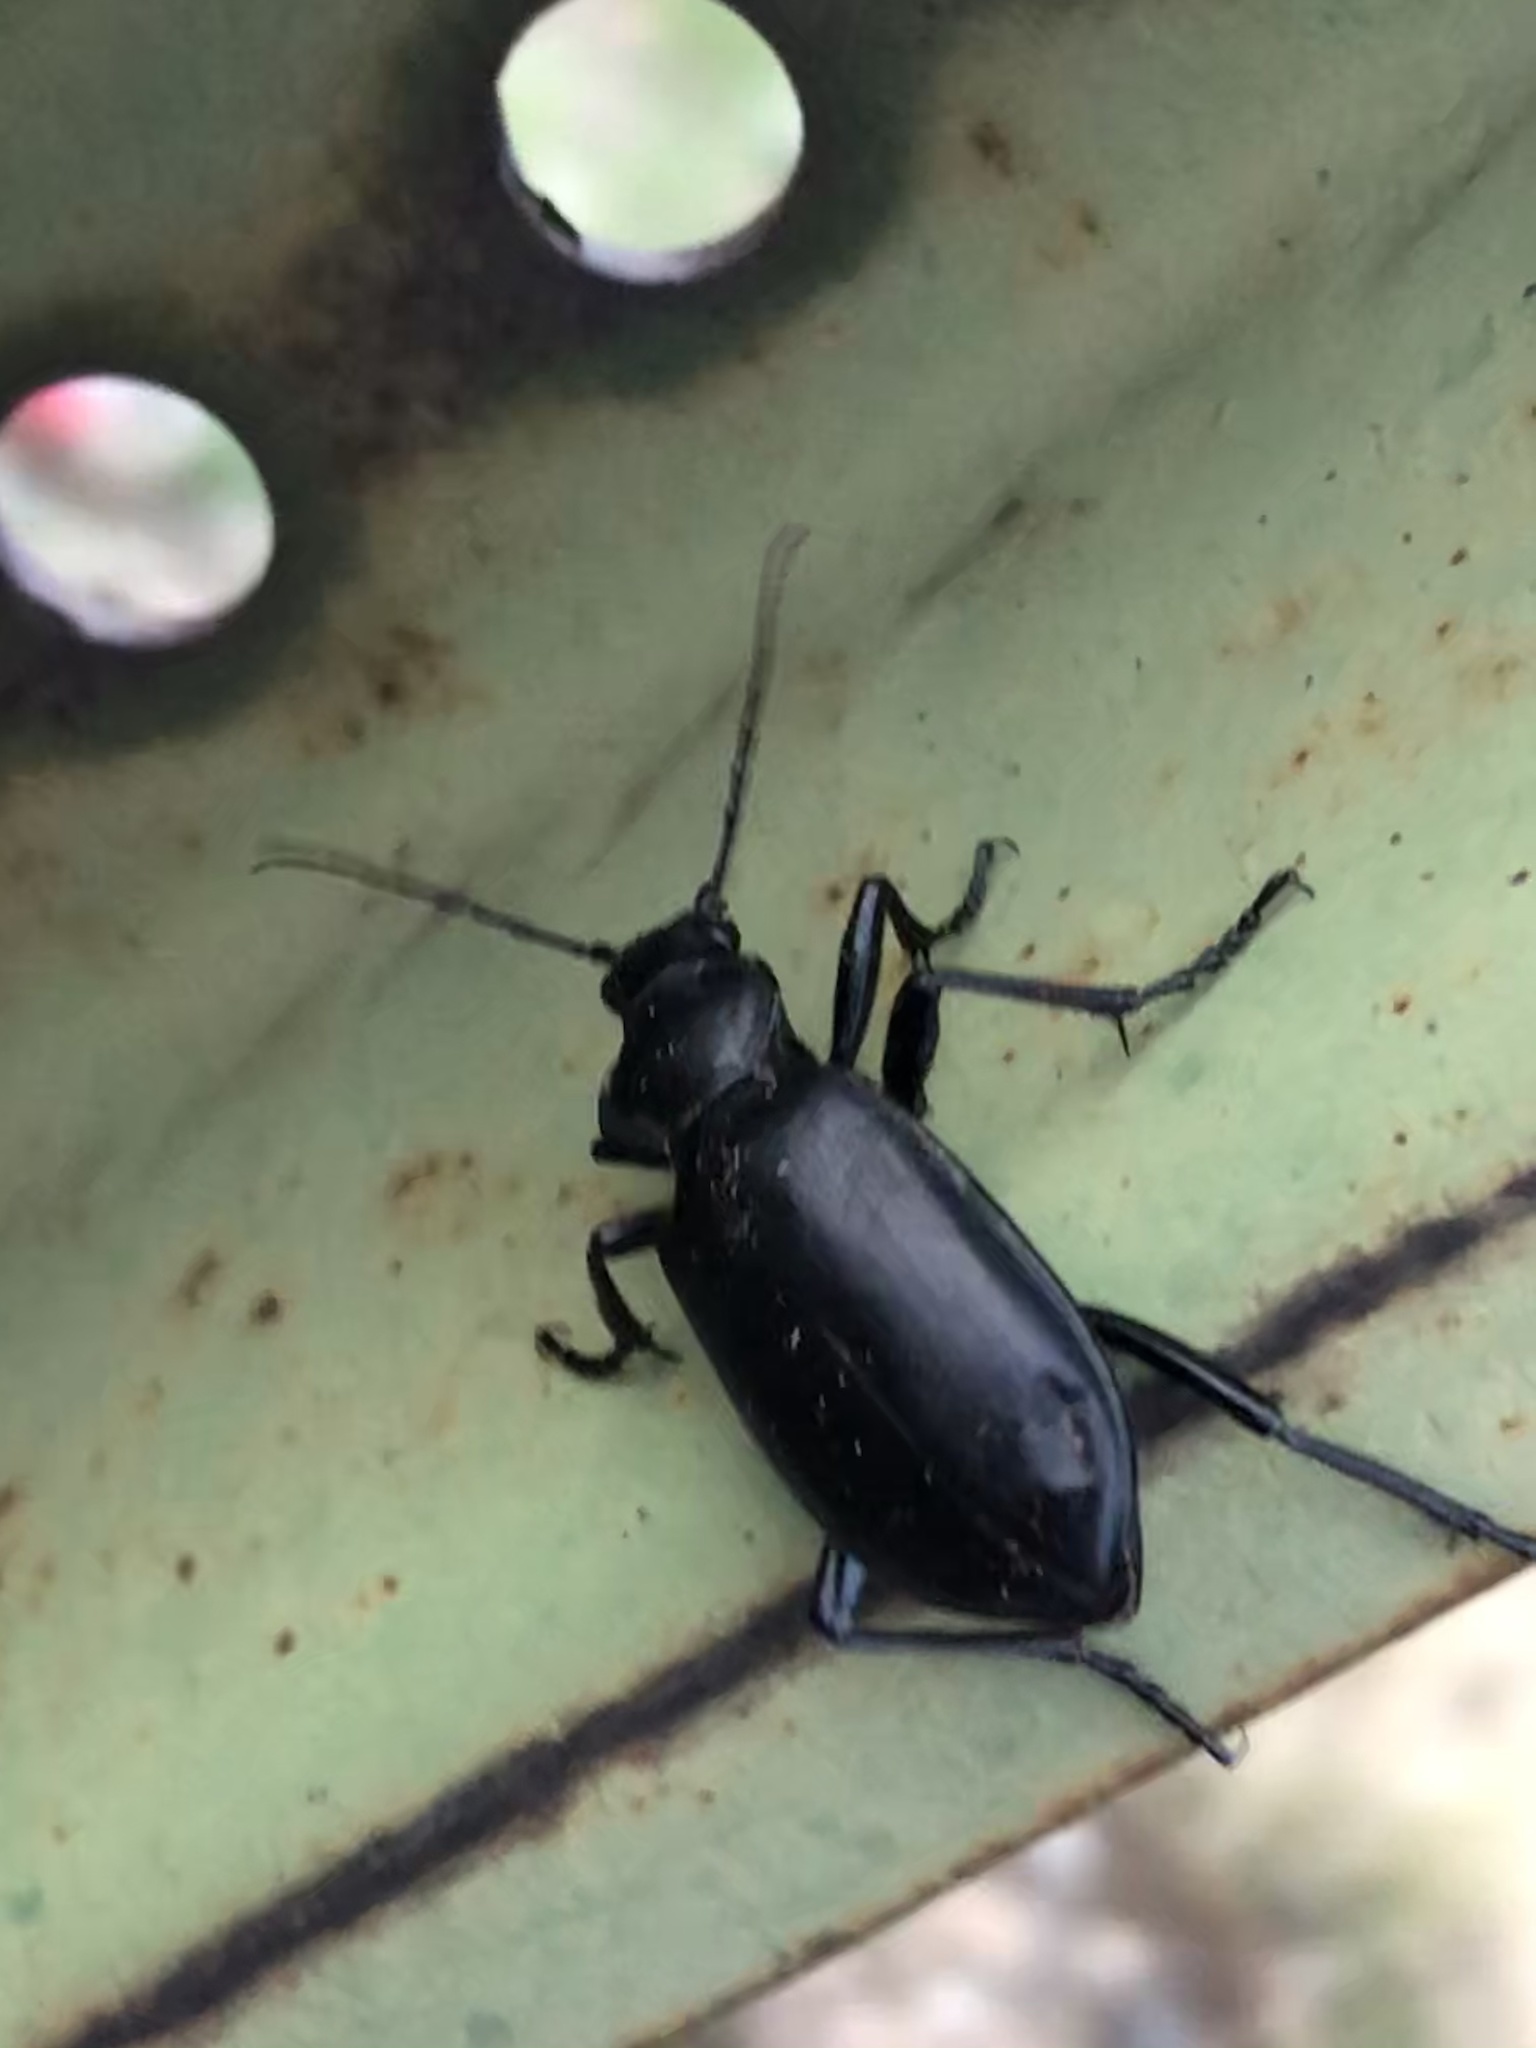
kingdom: Animalia
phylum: Arthropoda
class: Insecta
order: Coleoptera
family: Carabidae
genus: Calosoma
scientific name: Calosoma peregrinator
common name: Ground beetle
